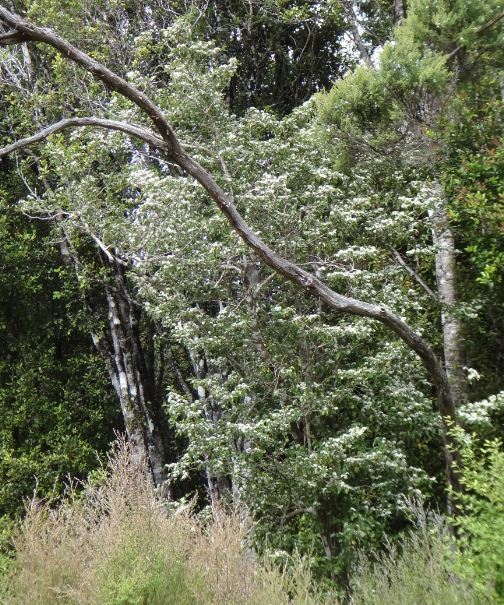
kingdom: Plantae
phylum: Tracheophyta
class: Magnoliopsida
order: Asterales
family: Rousseaceae
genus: Carpodetus
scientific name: Carpodetus serratus
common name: White mapau
